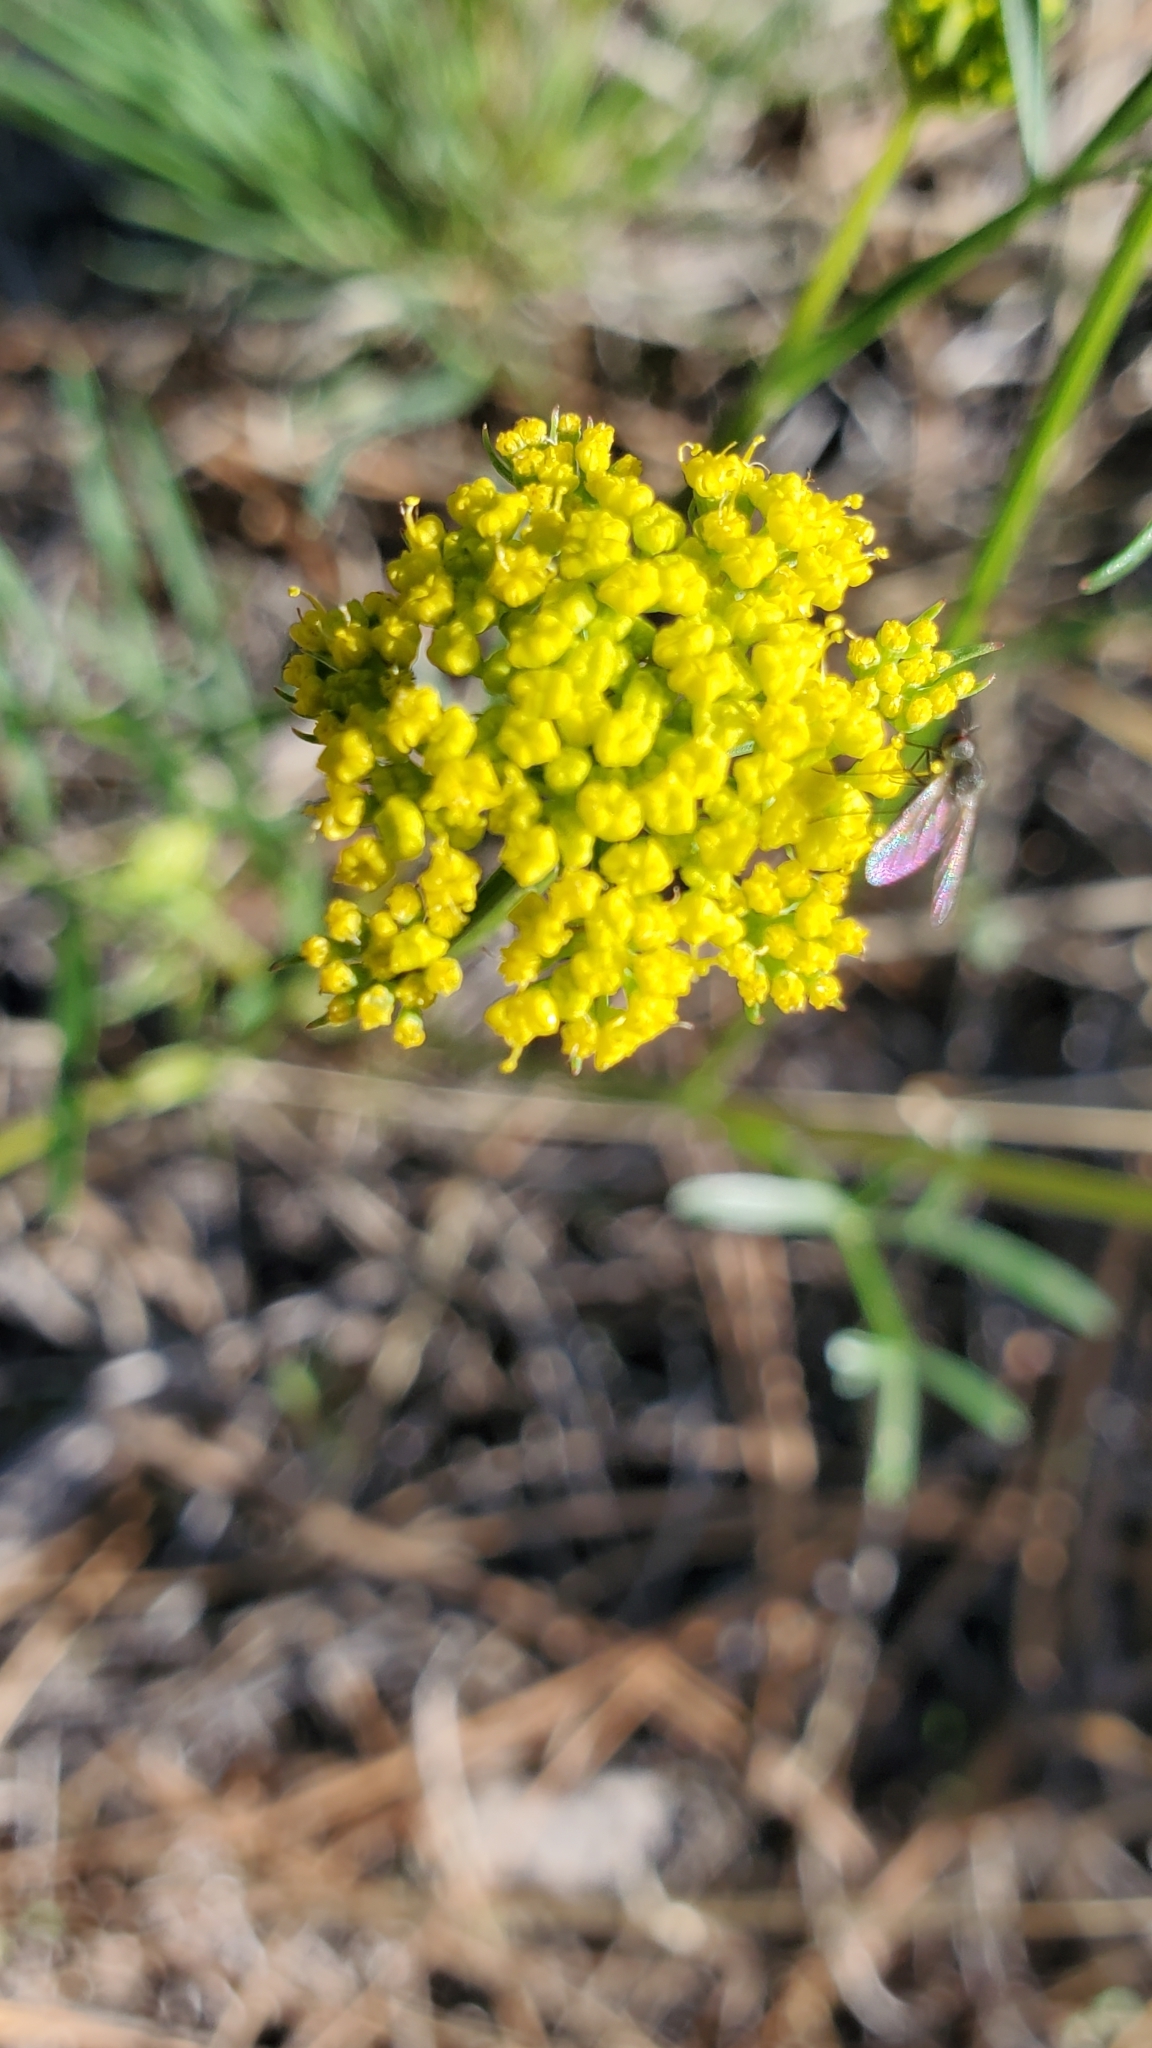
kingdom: Plantae
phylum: Tracheophyta
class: Magnoliopsida
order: Apiales
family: Apiaceae
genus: Cymopterus
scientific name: Cymopterus lemmonii
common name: Lemmon's spring-parsley
